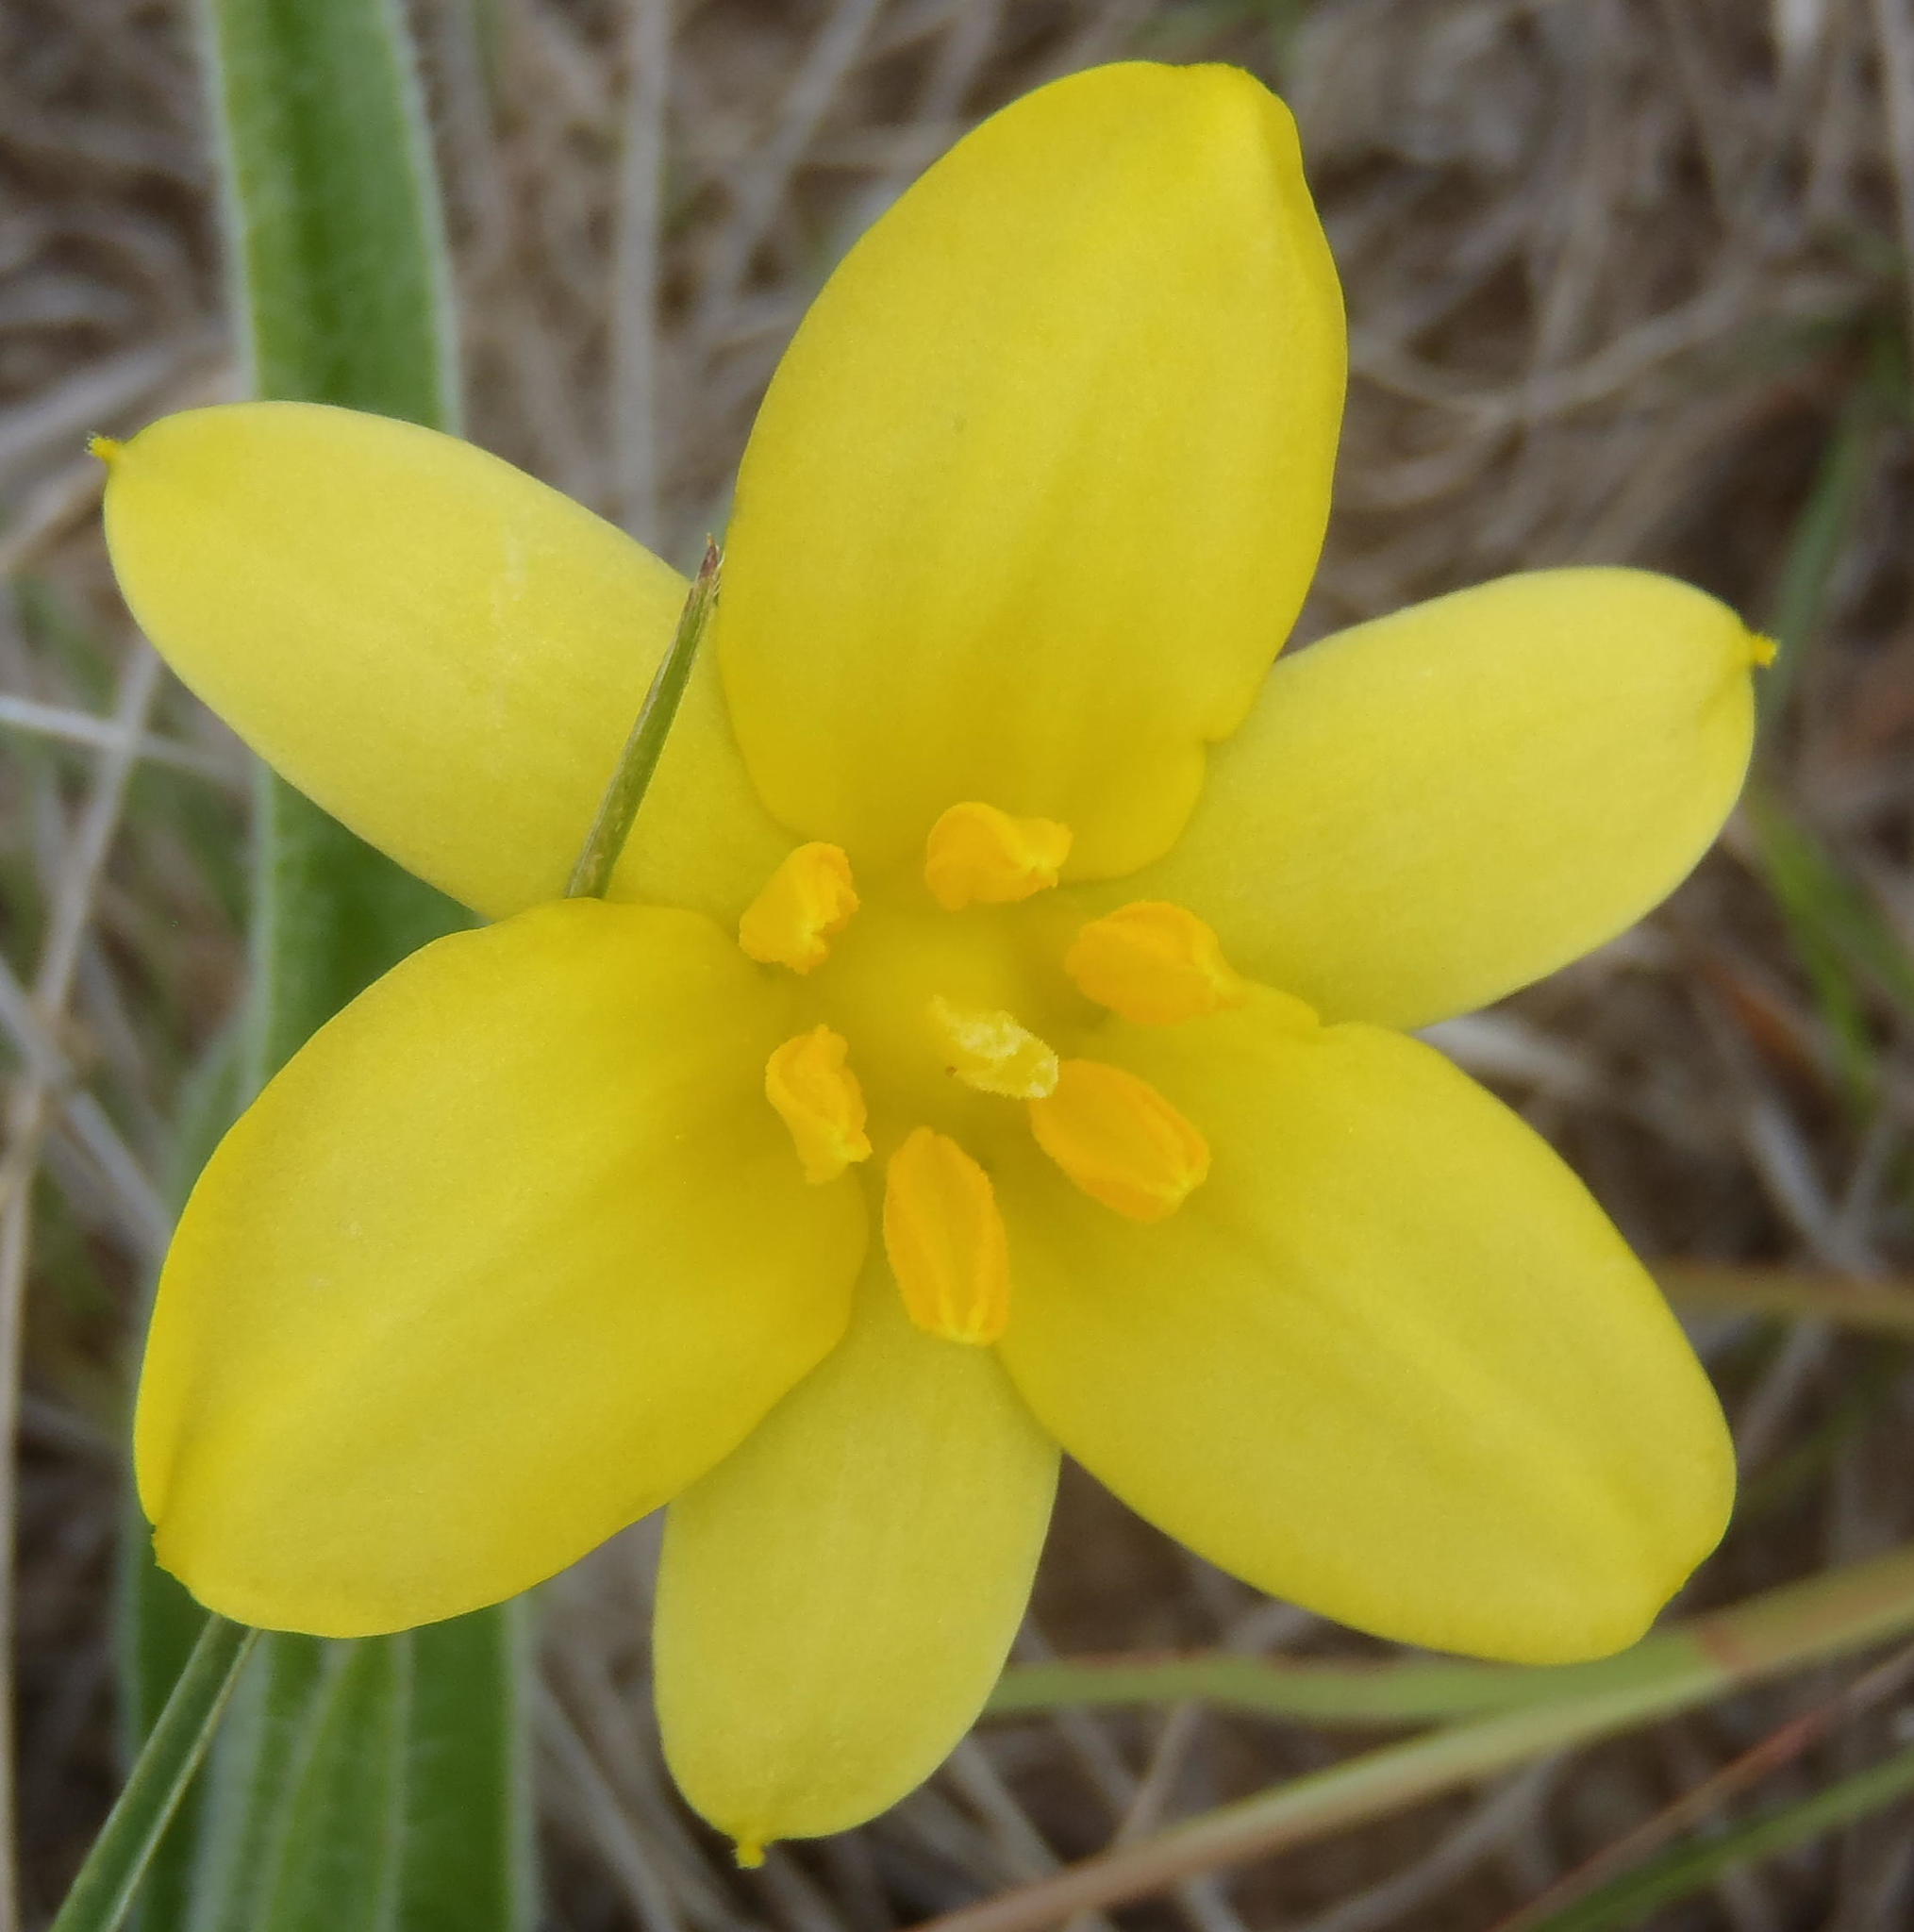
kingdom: Plantae
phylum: Tracheophyta
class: Liliopsida
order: Asparagales
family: Hypoxidaceae
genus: Hypoxis
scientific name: Hypoxis hemerocallidea
